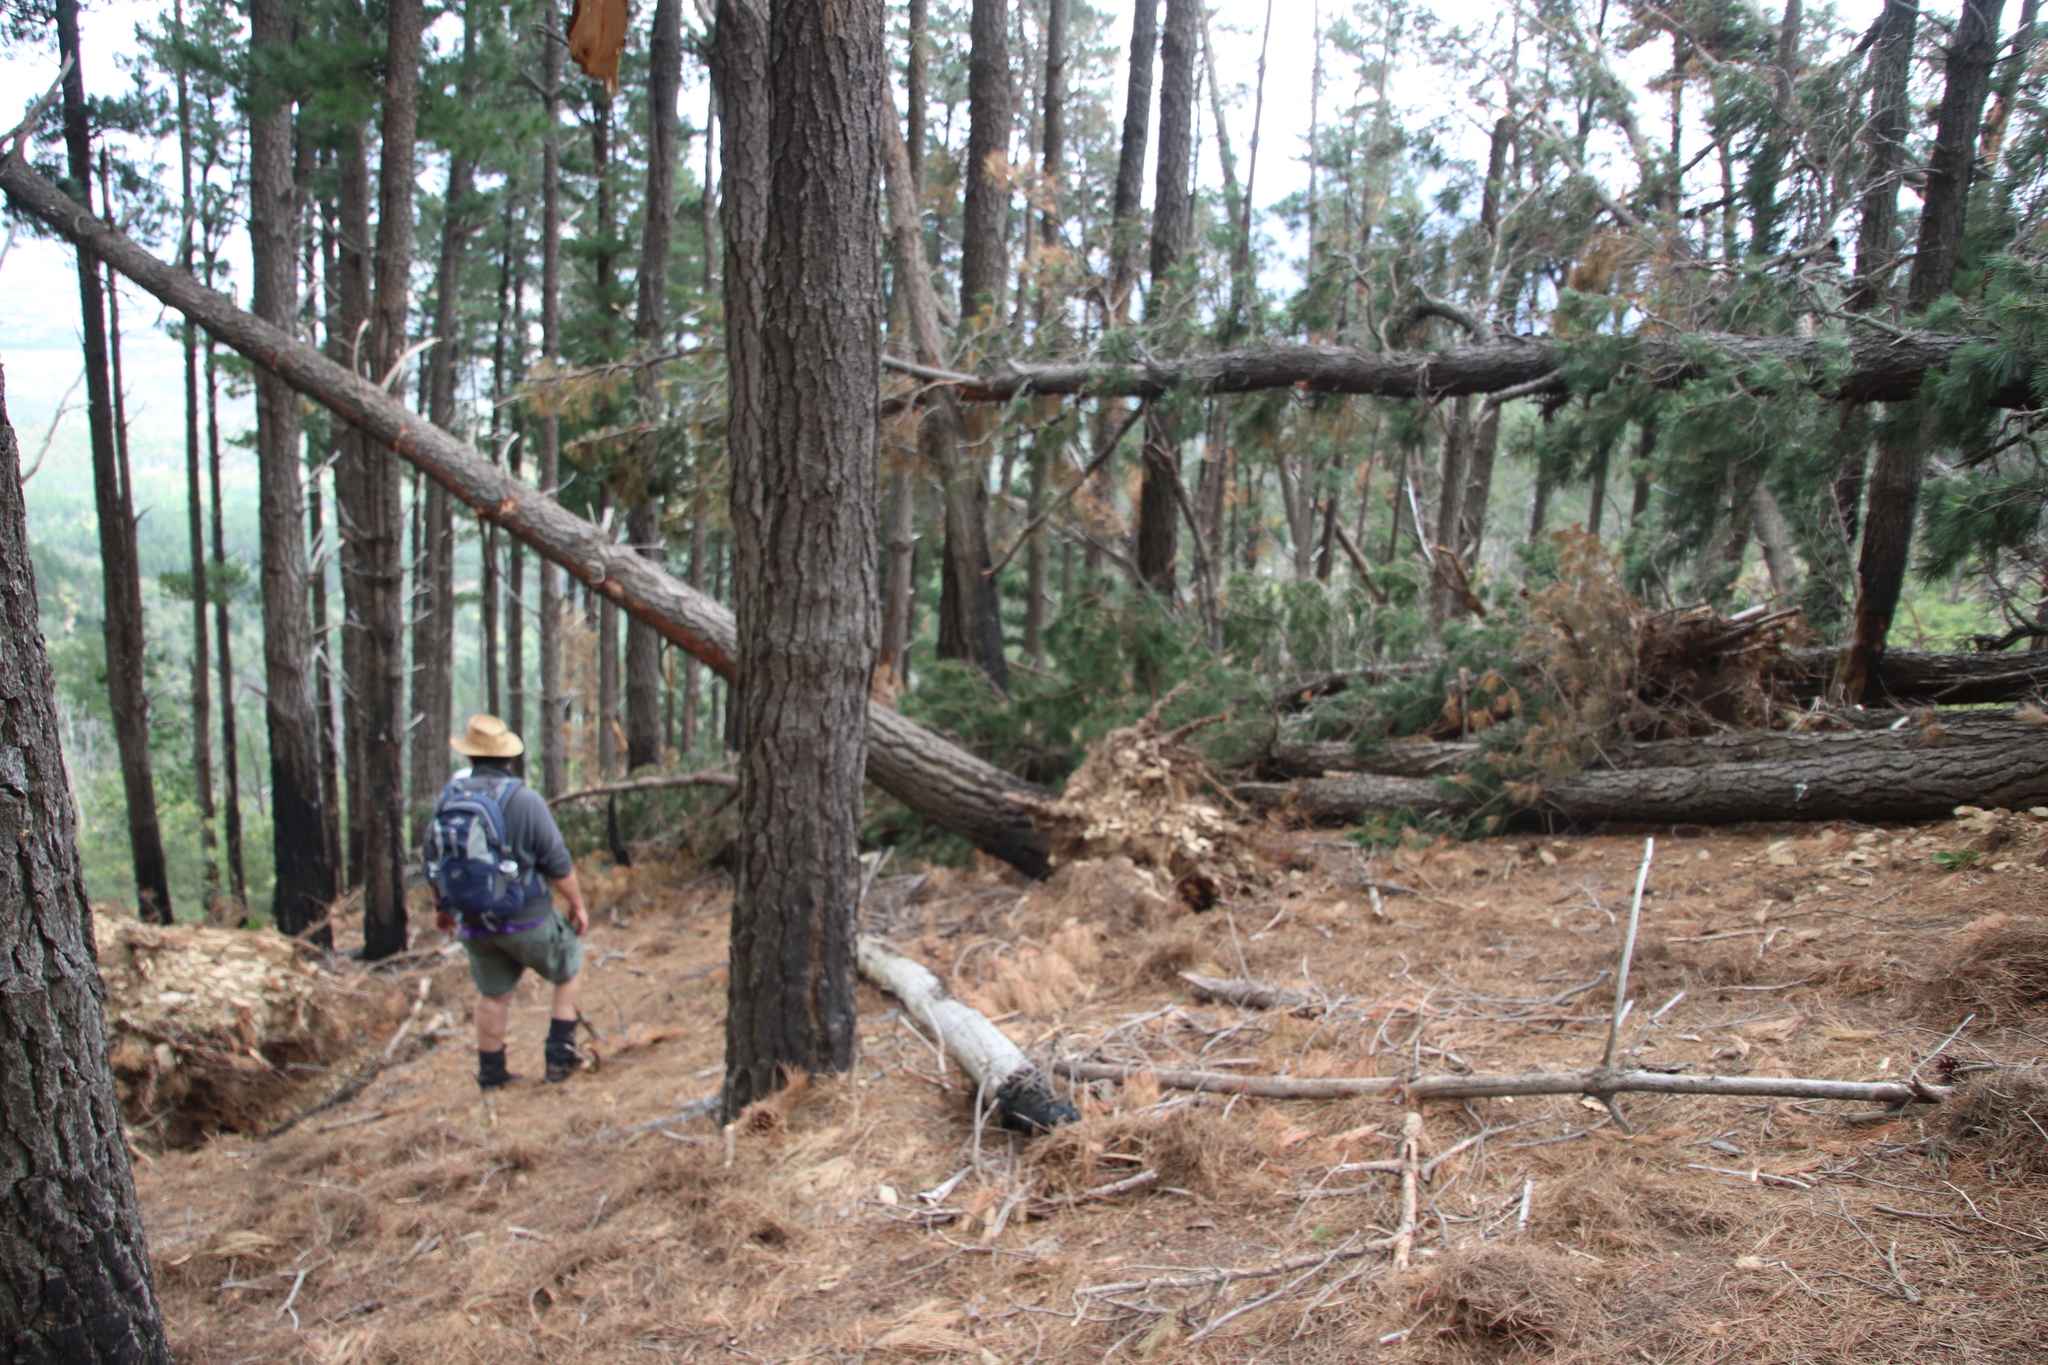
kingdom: Plantae
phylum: Tracheophyta
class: Pinopsida
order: Pinales
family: Pinaceae
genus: Pinus
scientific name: Pinus radiata
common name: Monterey pine
